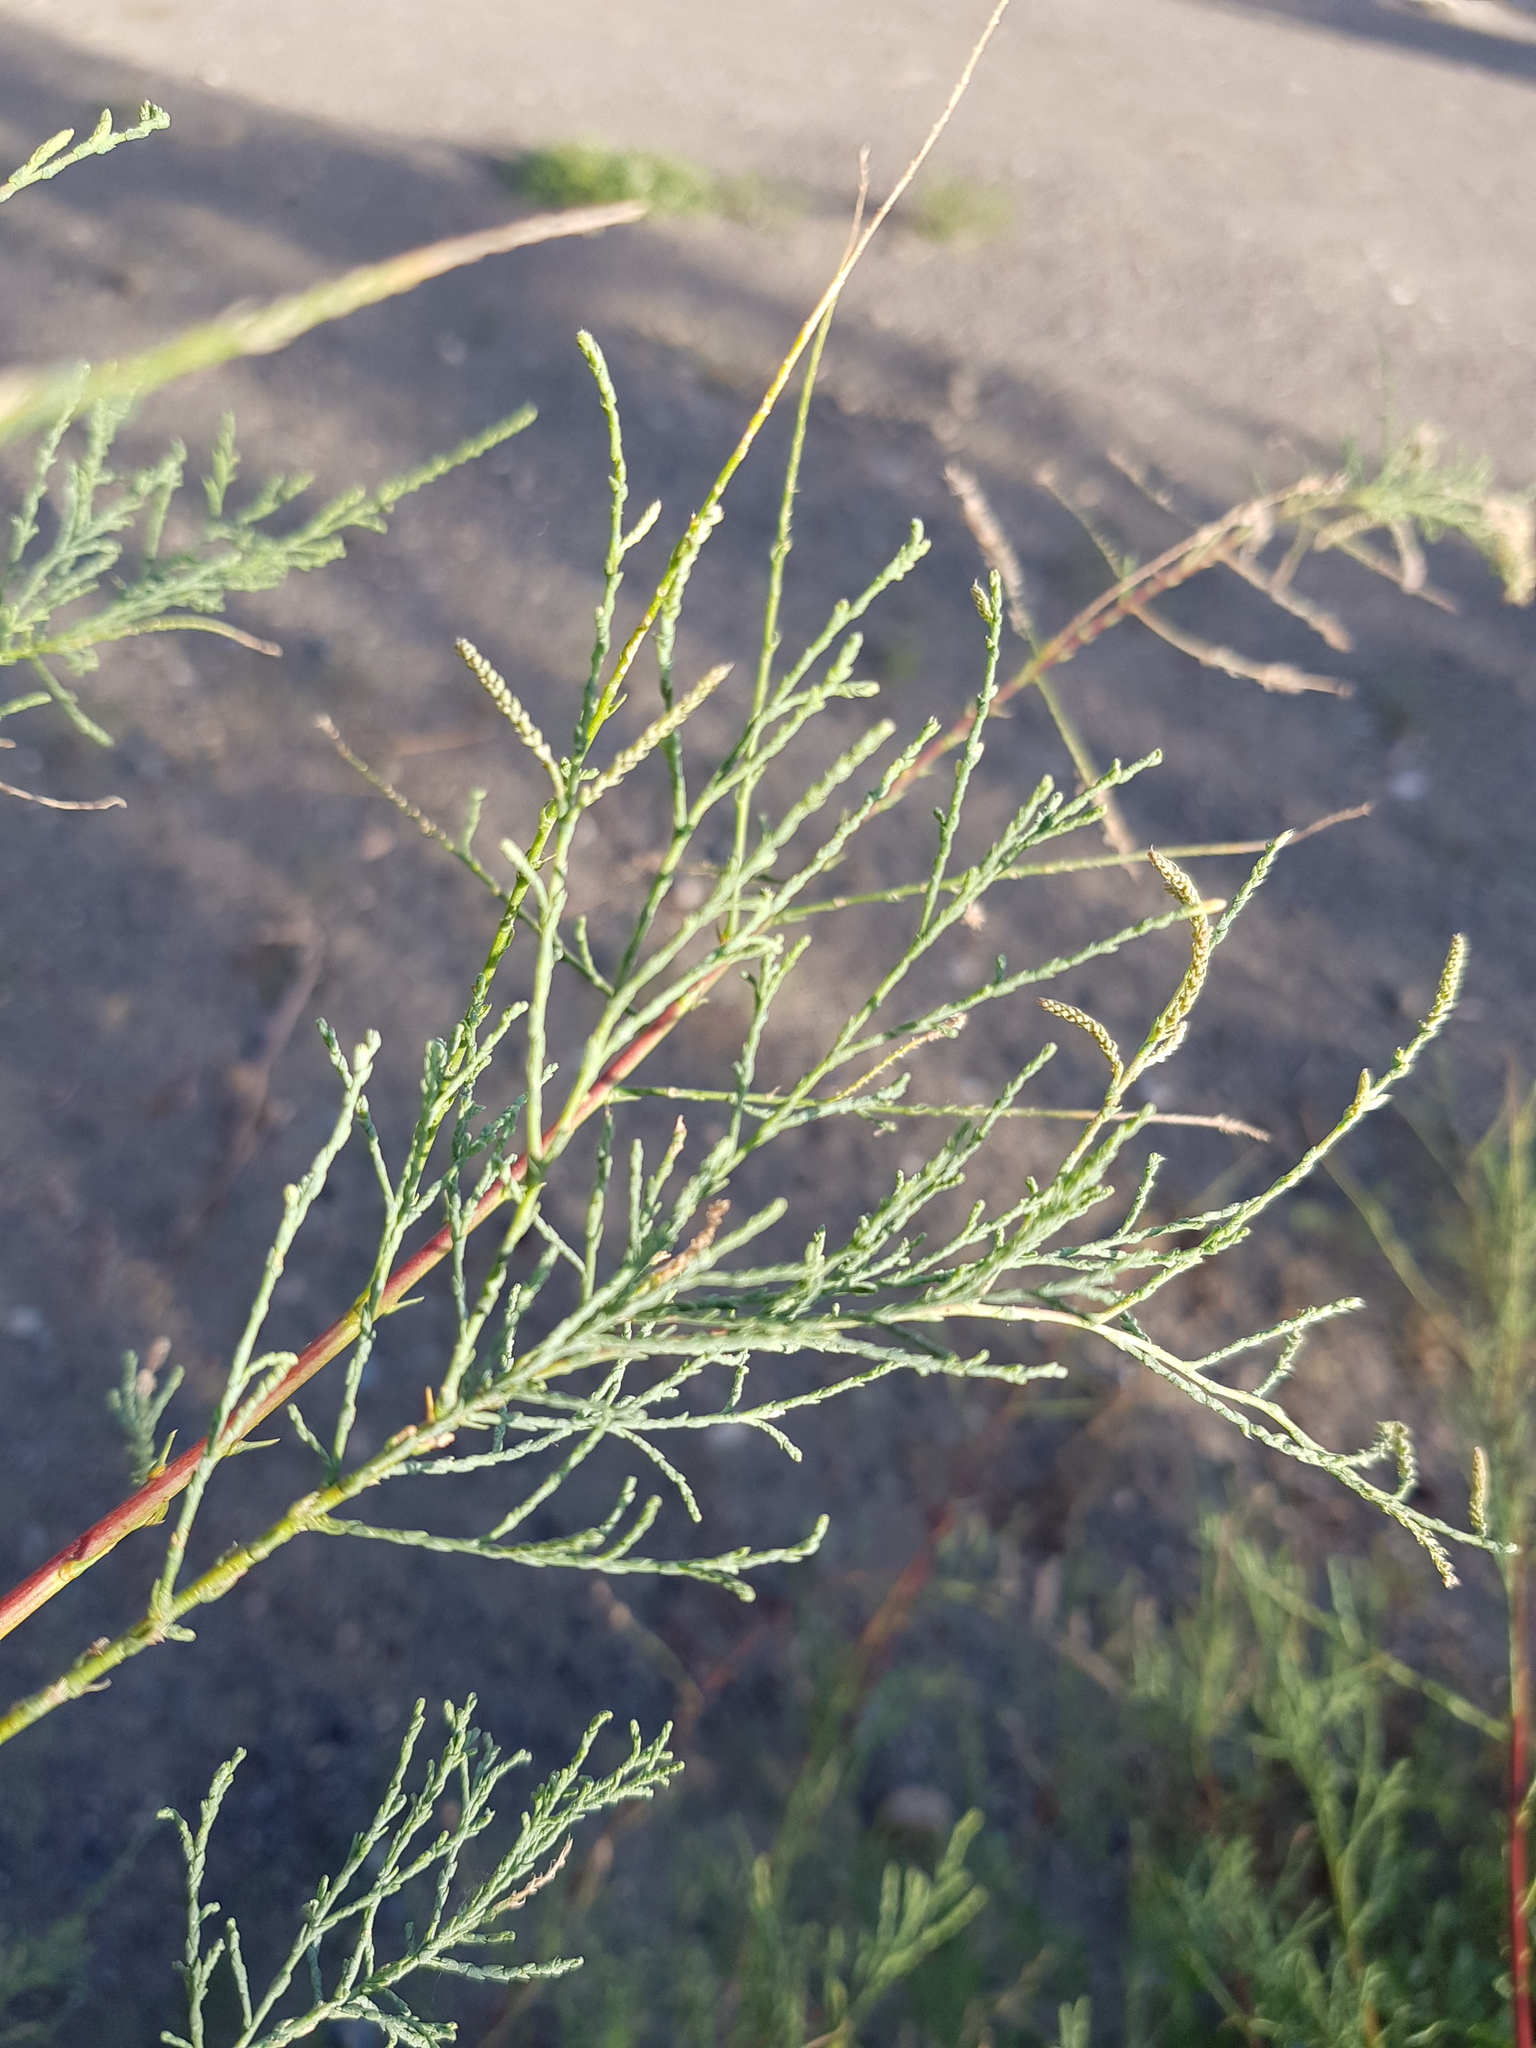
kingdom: Plantae
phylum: Tracheophyta
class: Magnoliopsida
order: Caryophyllales
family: Tamaricaceae
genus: Tamarix
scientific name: Tamarix gracilis
